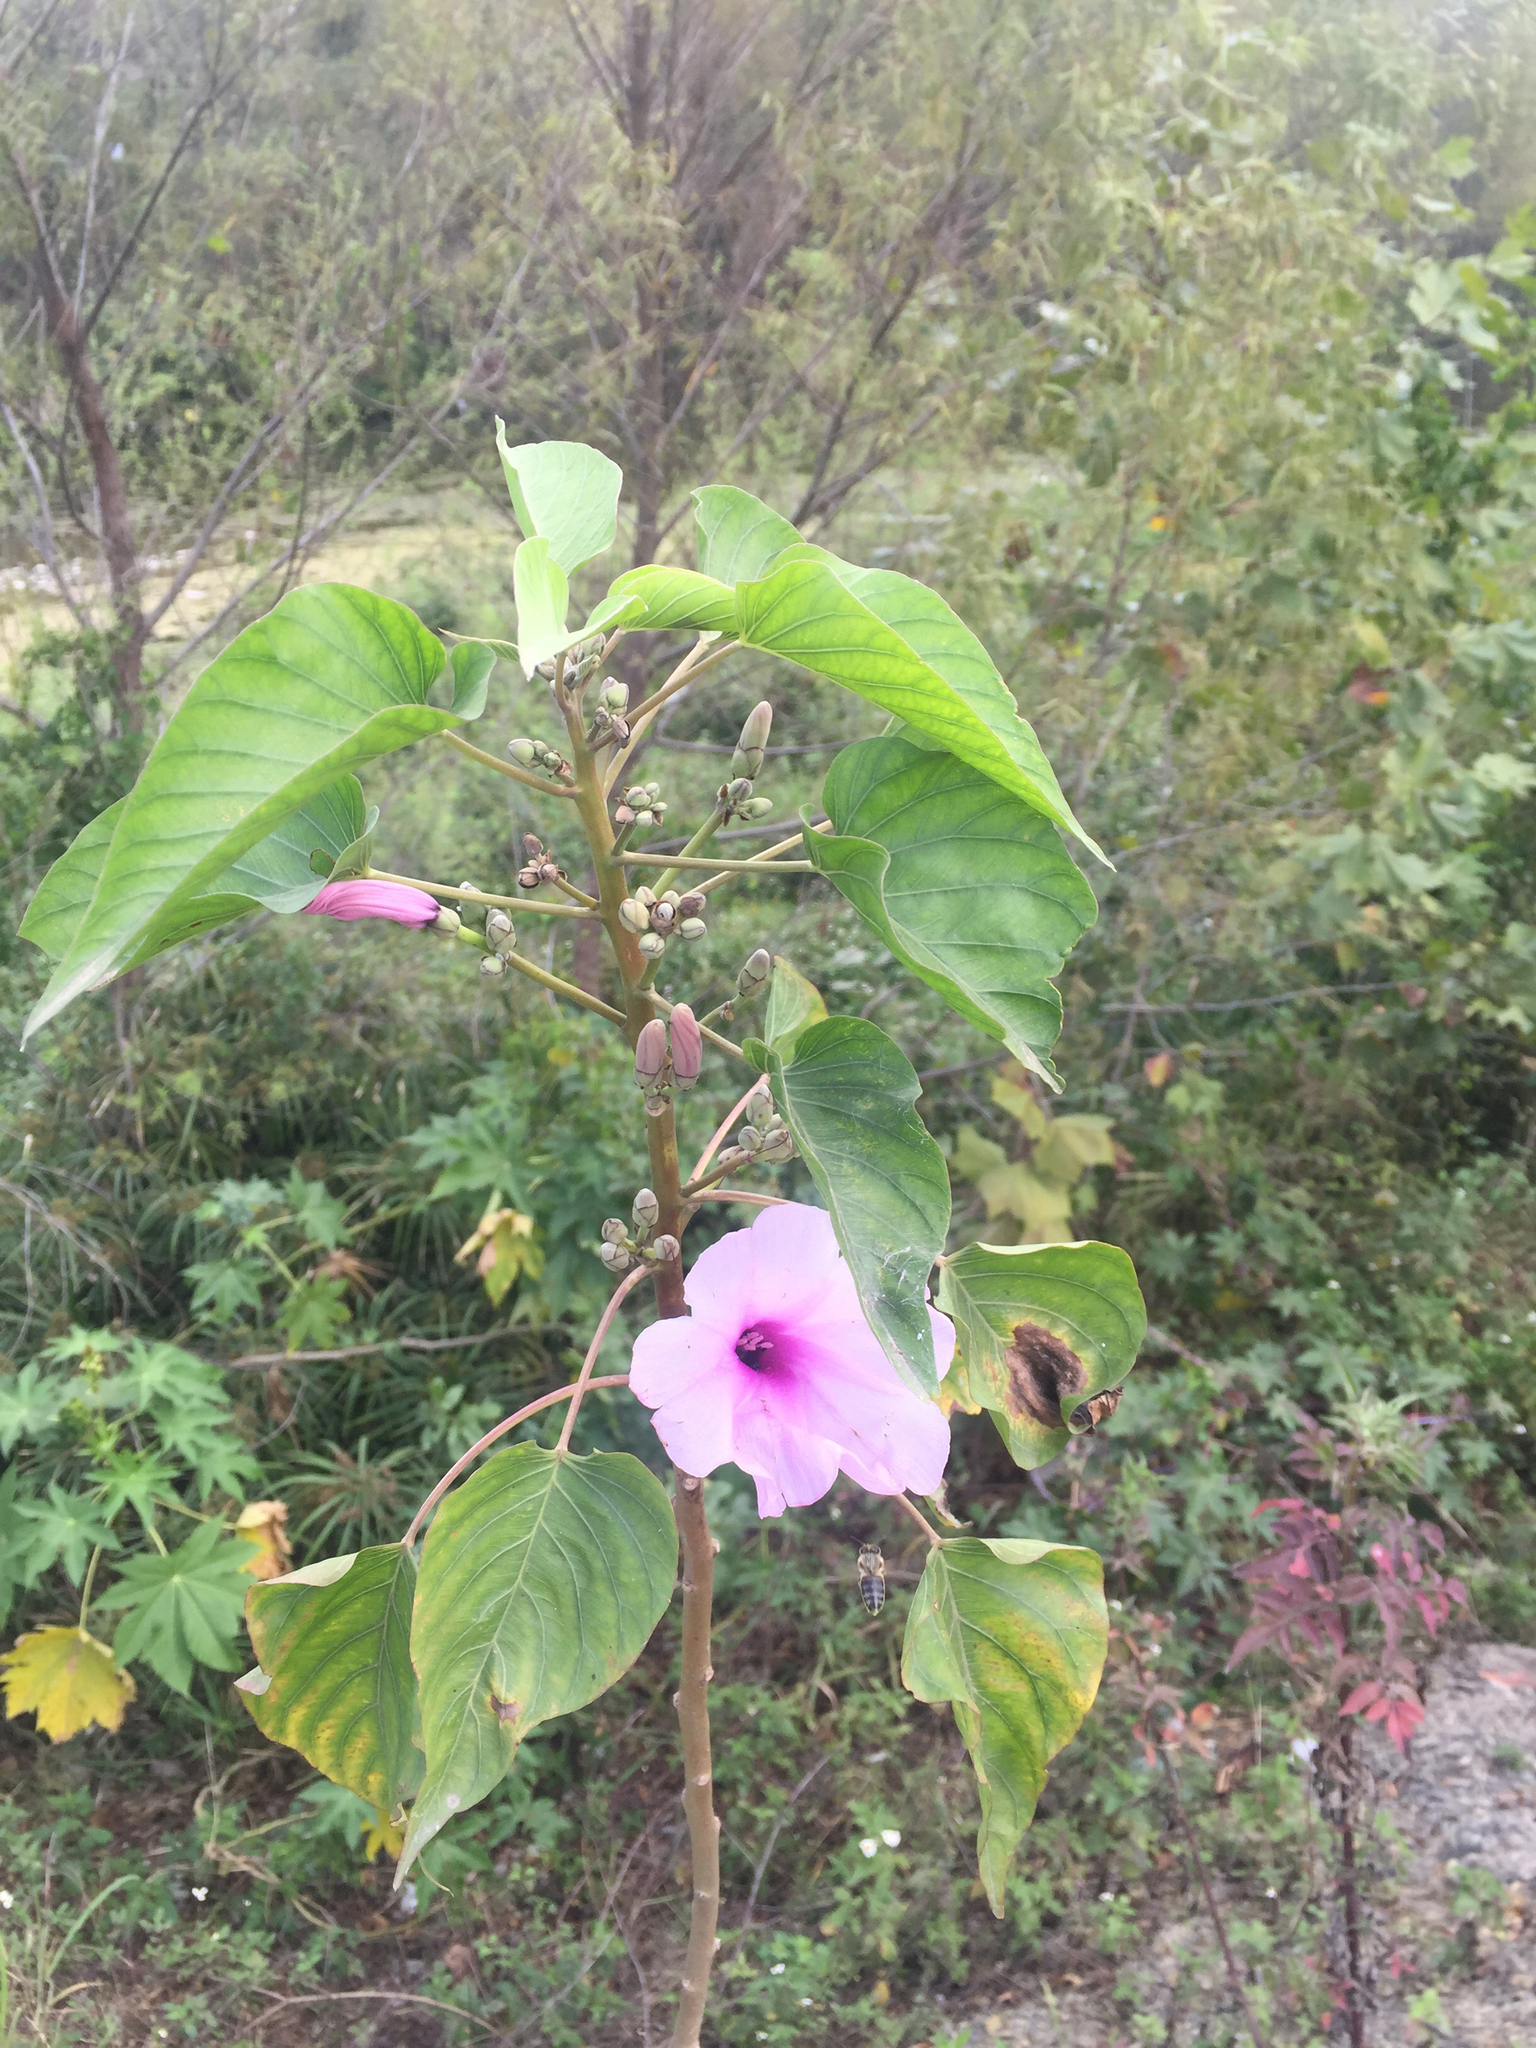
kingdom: Plantae
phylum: Tracheophyta
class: Magnoliopsida
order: Solanales
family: Convolvulaceae
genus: Ipomoea
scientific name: Ipomoea carnea
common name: Morning-glory
